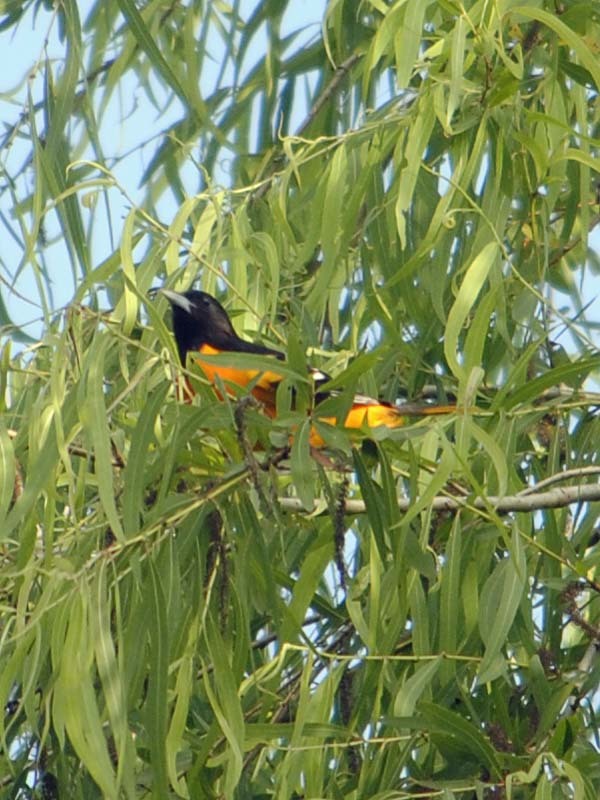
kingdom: Animalia
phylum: Chordata
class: Aves
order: Passeriformes
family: Icteridae
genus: Icterus
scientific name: Icterus galbula
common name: Baltimore oriole
